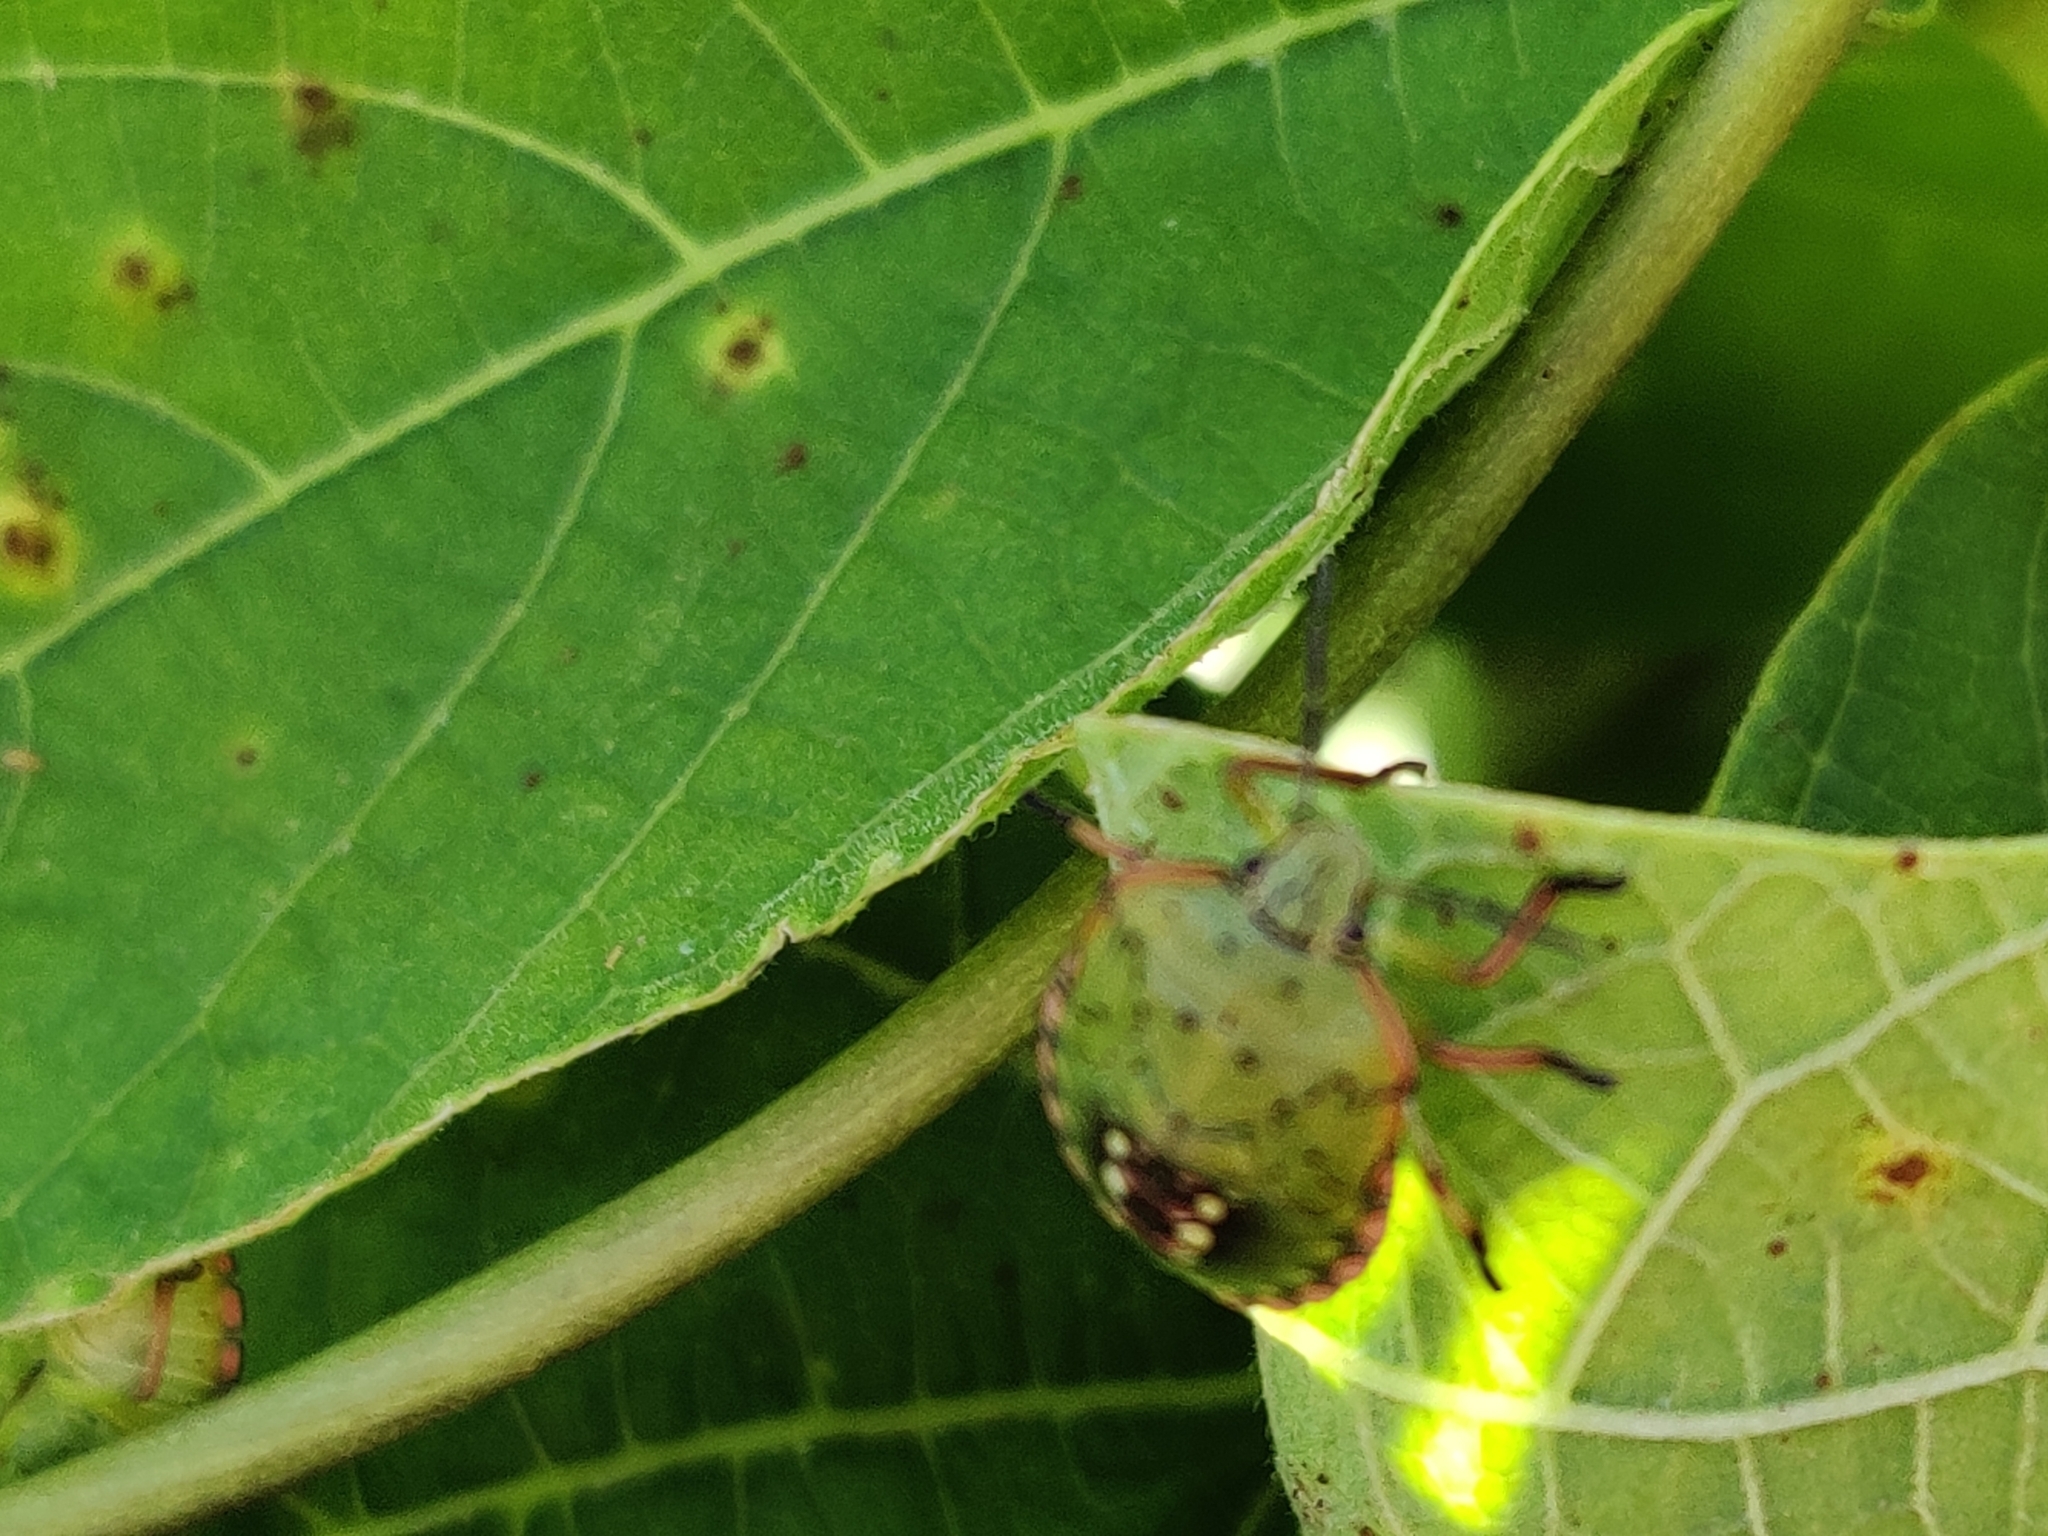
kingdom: Animalia
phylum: Arthropoda
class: Insecta
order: Hemiptera
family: Pentatomidae
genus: Nezara
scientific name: Nezara viridula
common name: Southern green stink bug
